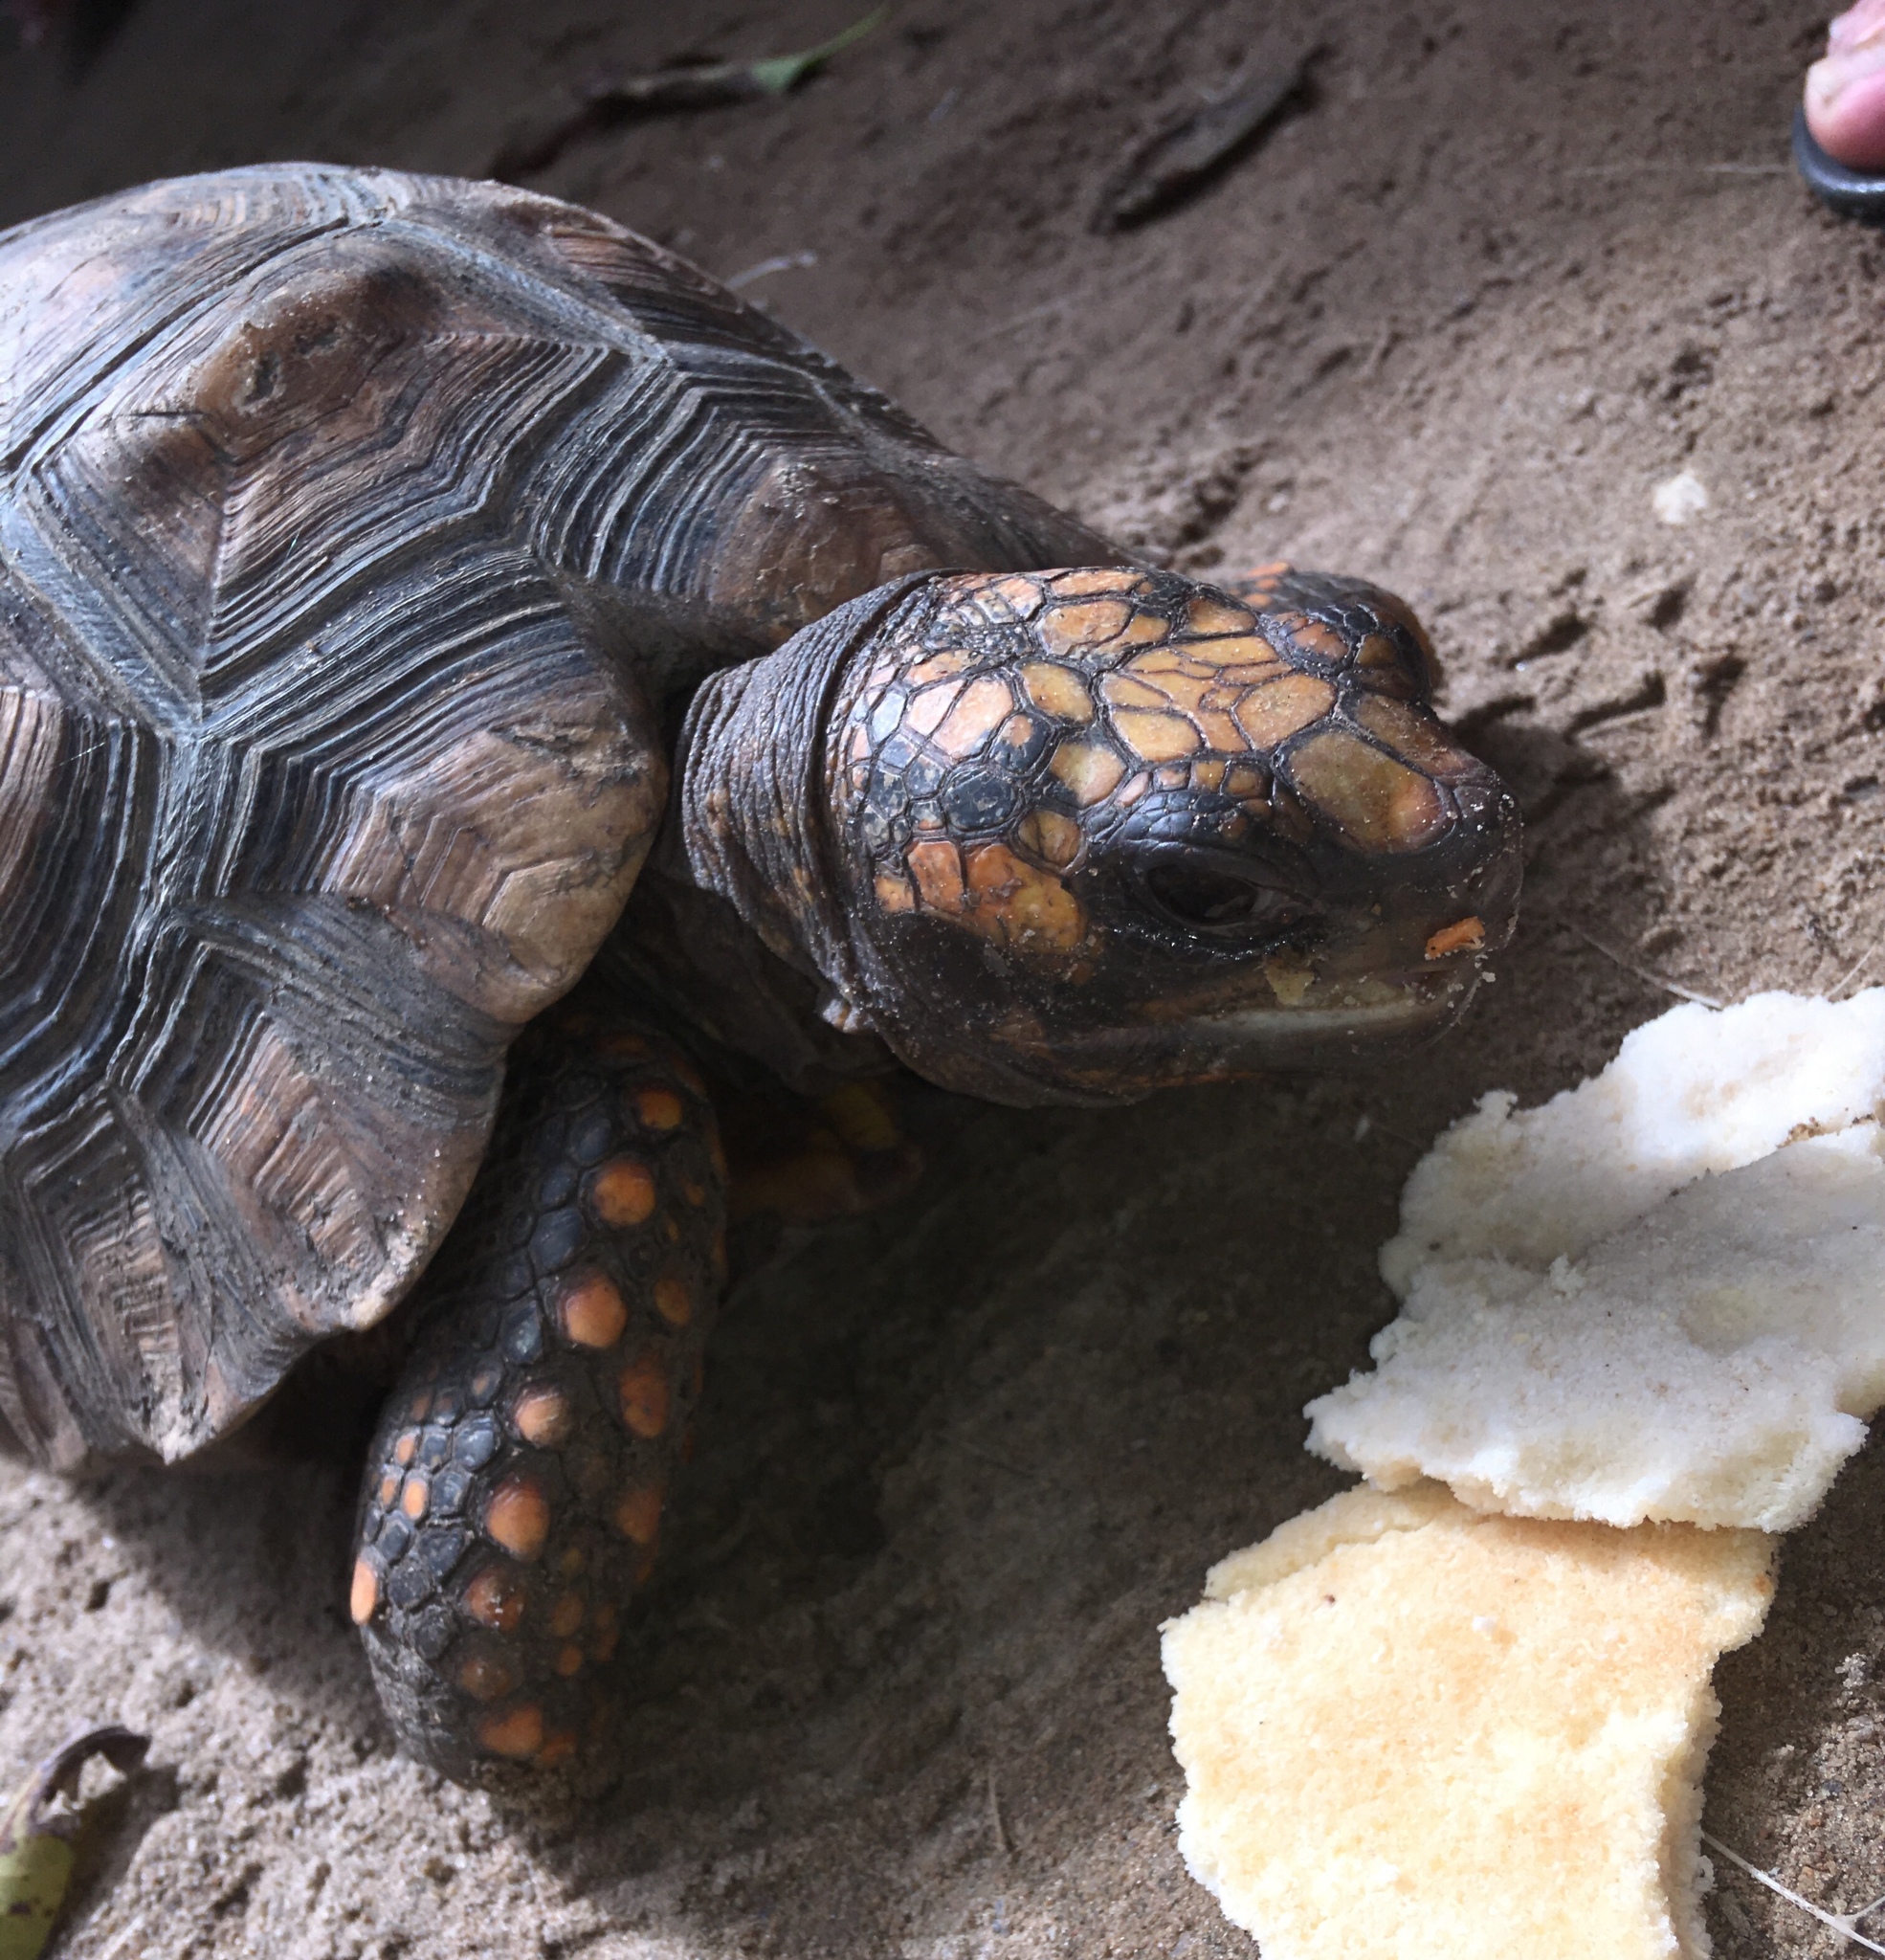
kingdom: Animalia
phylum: Chordata
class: Testudines
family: Testudinidae
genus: Chelonoidis
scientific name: Chelonoidis carbonarius
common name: Red-footed tortoise
